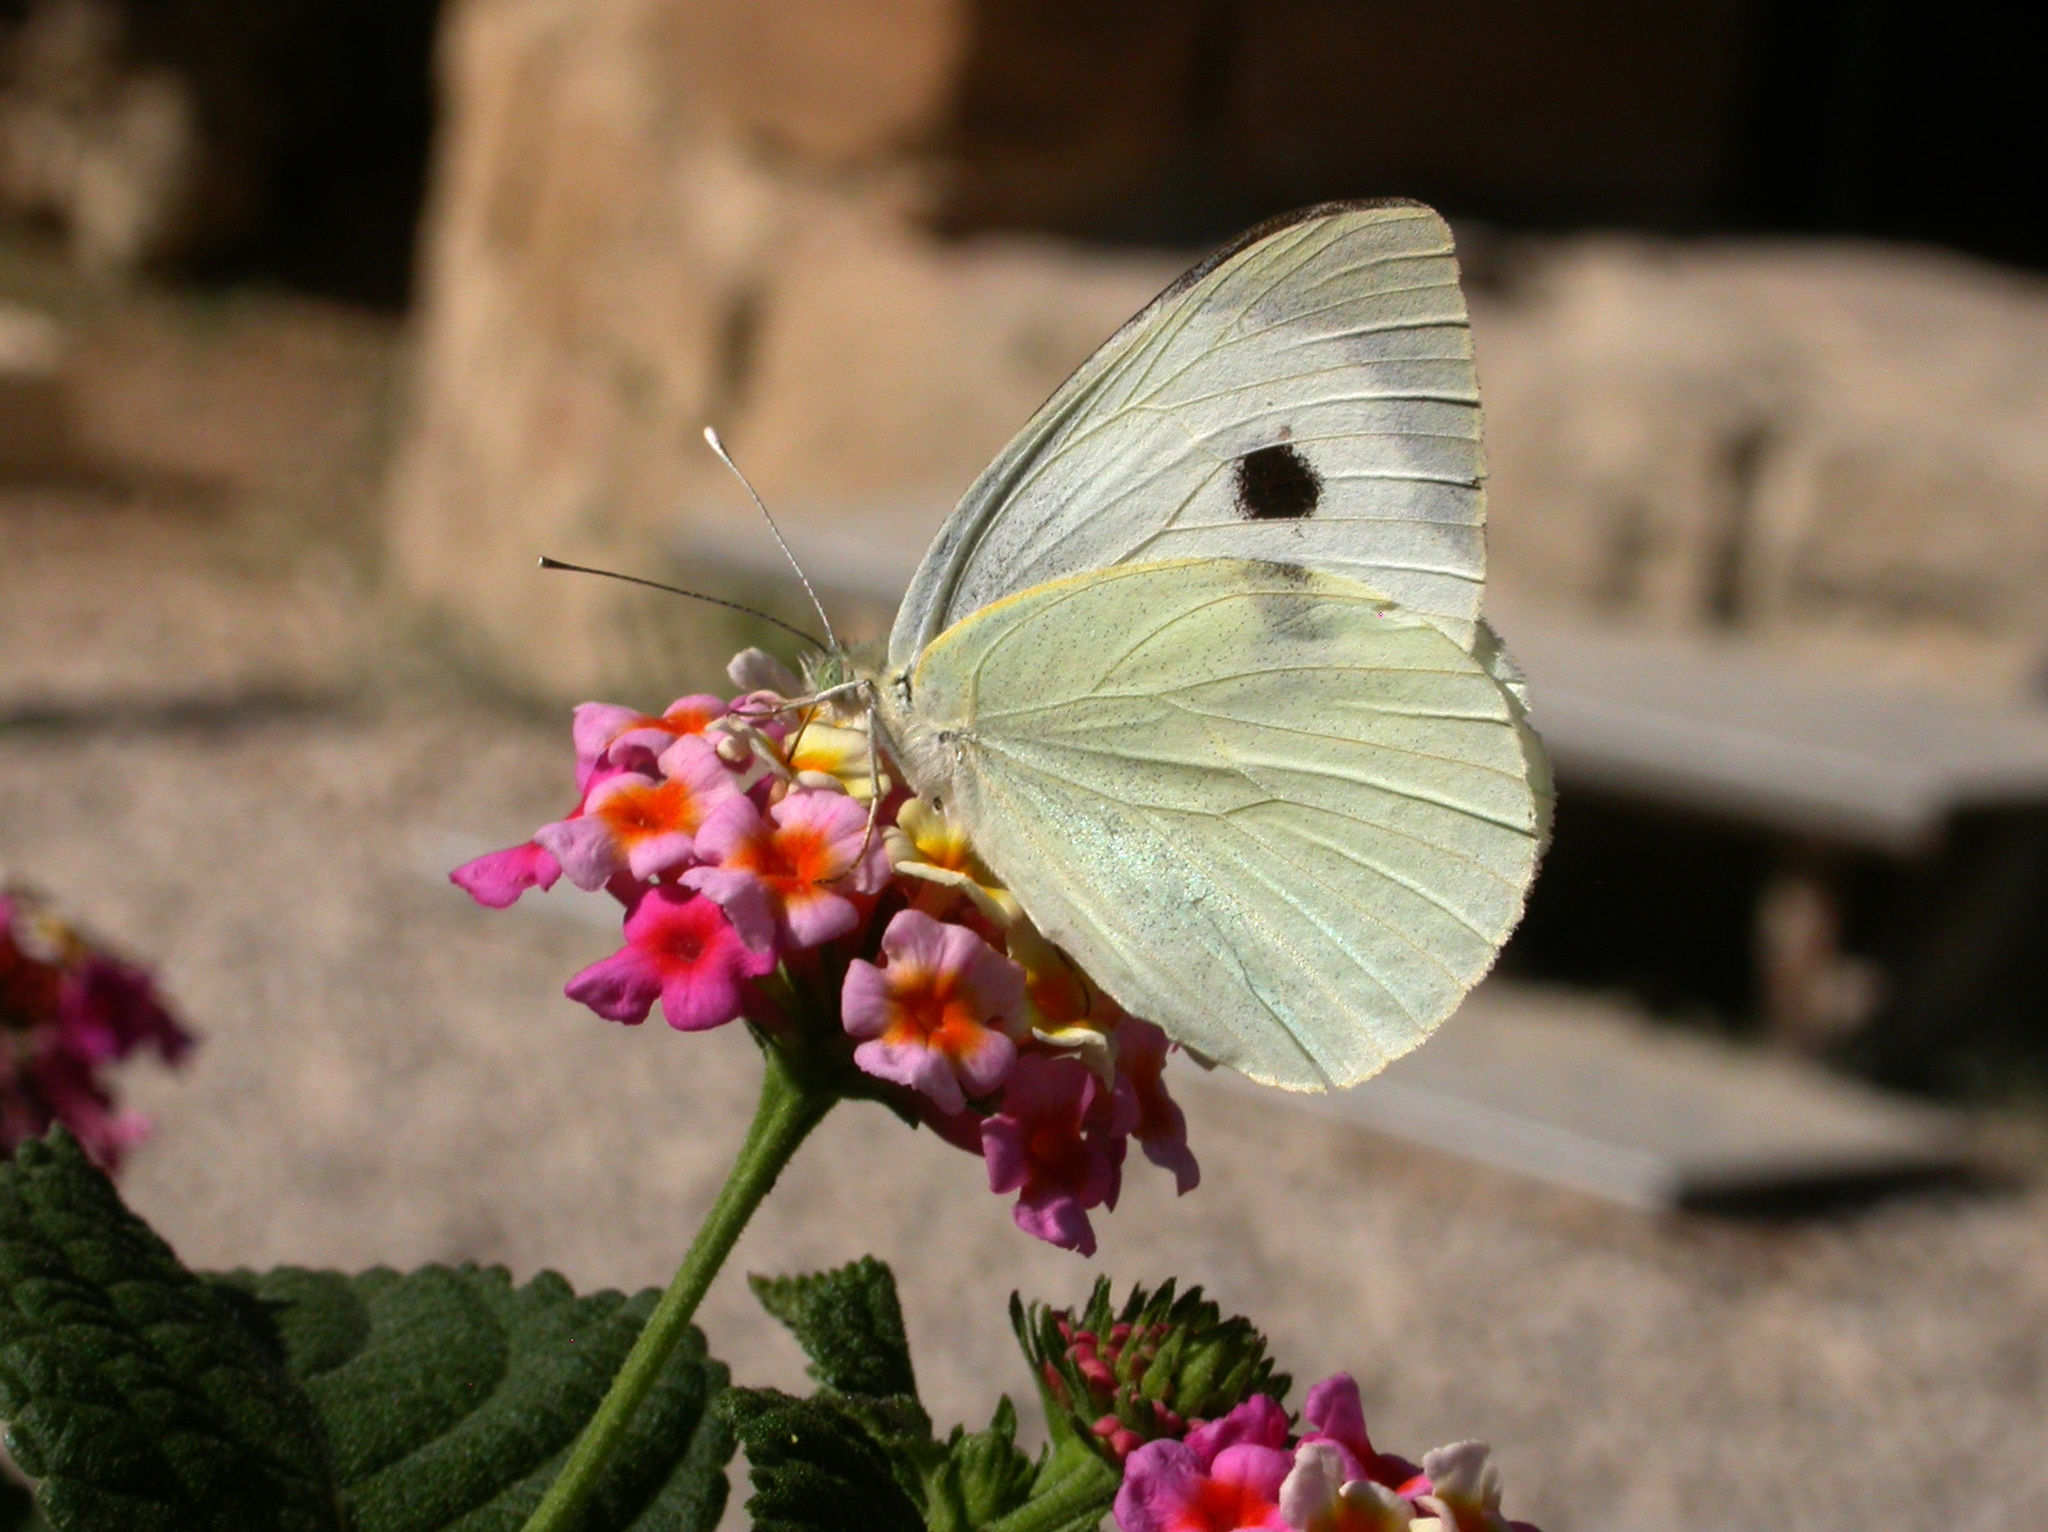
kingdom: Animalia
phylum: Arthropoda
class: Insecta
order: Lepidoptera
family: Pieridae
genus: Pieris
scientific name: Pieris brassicae
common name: Large white
